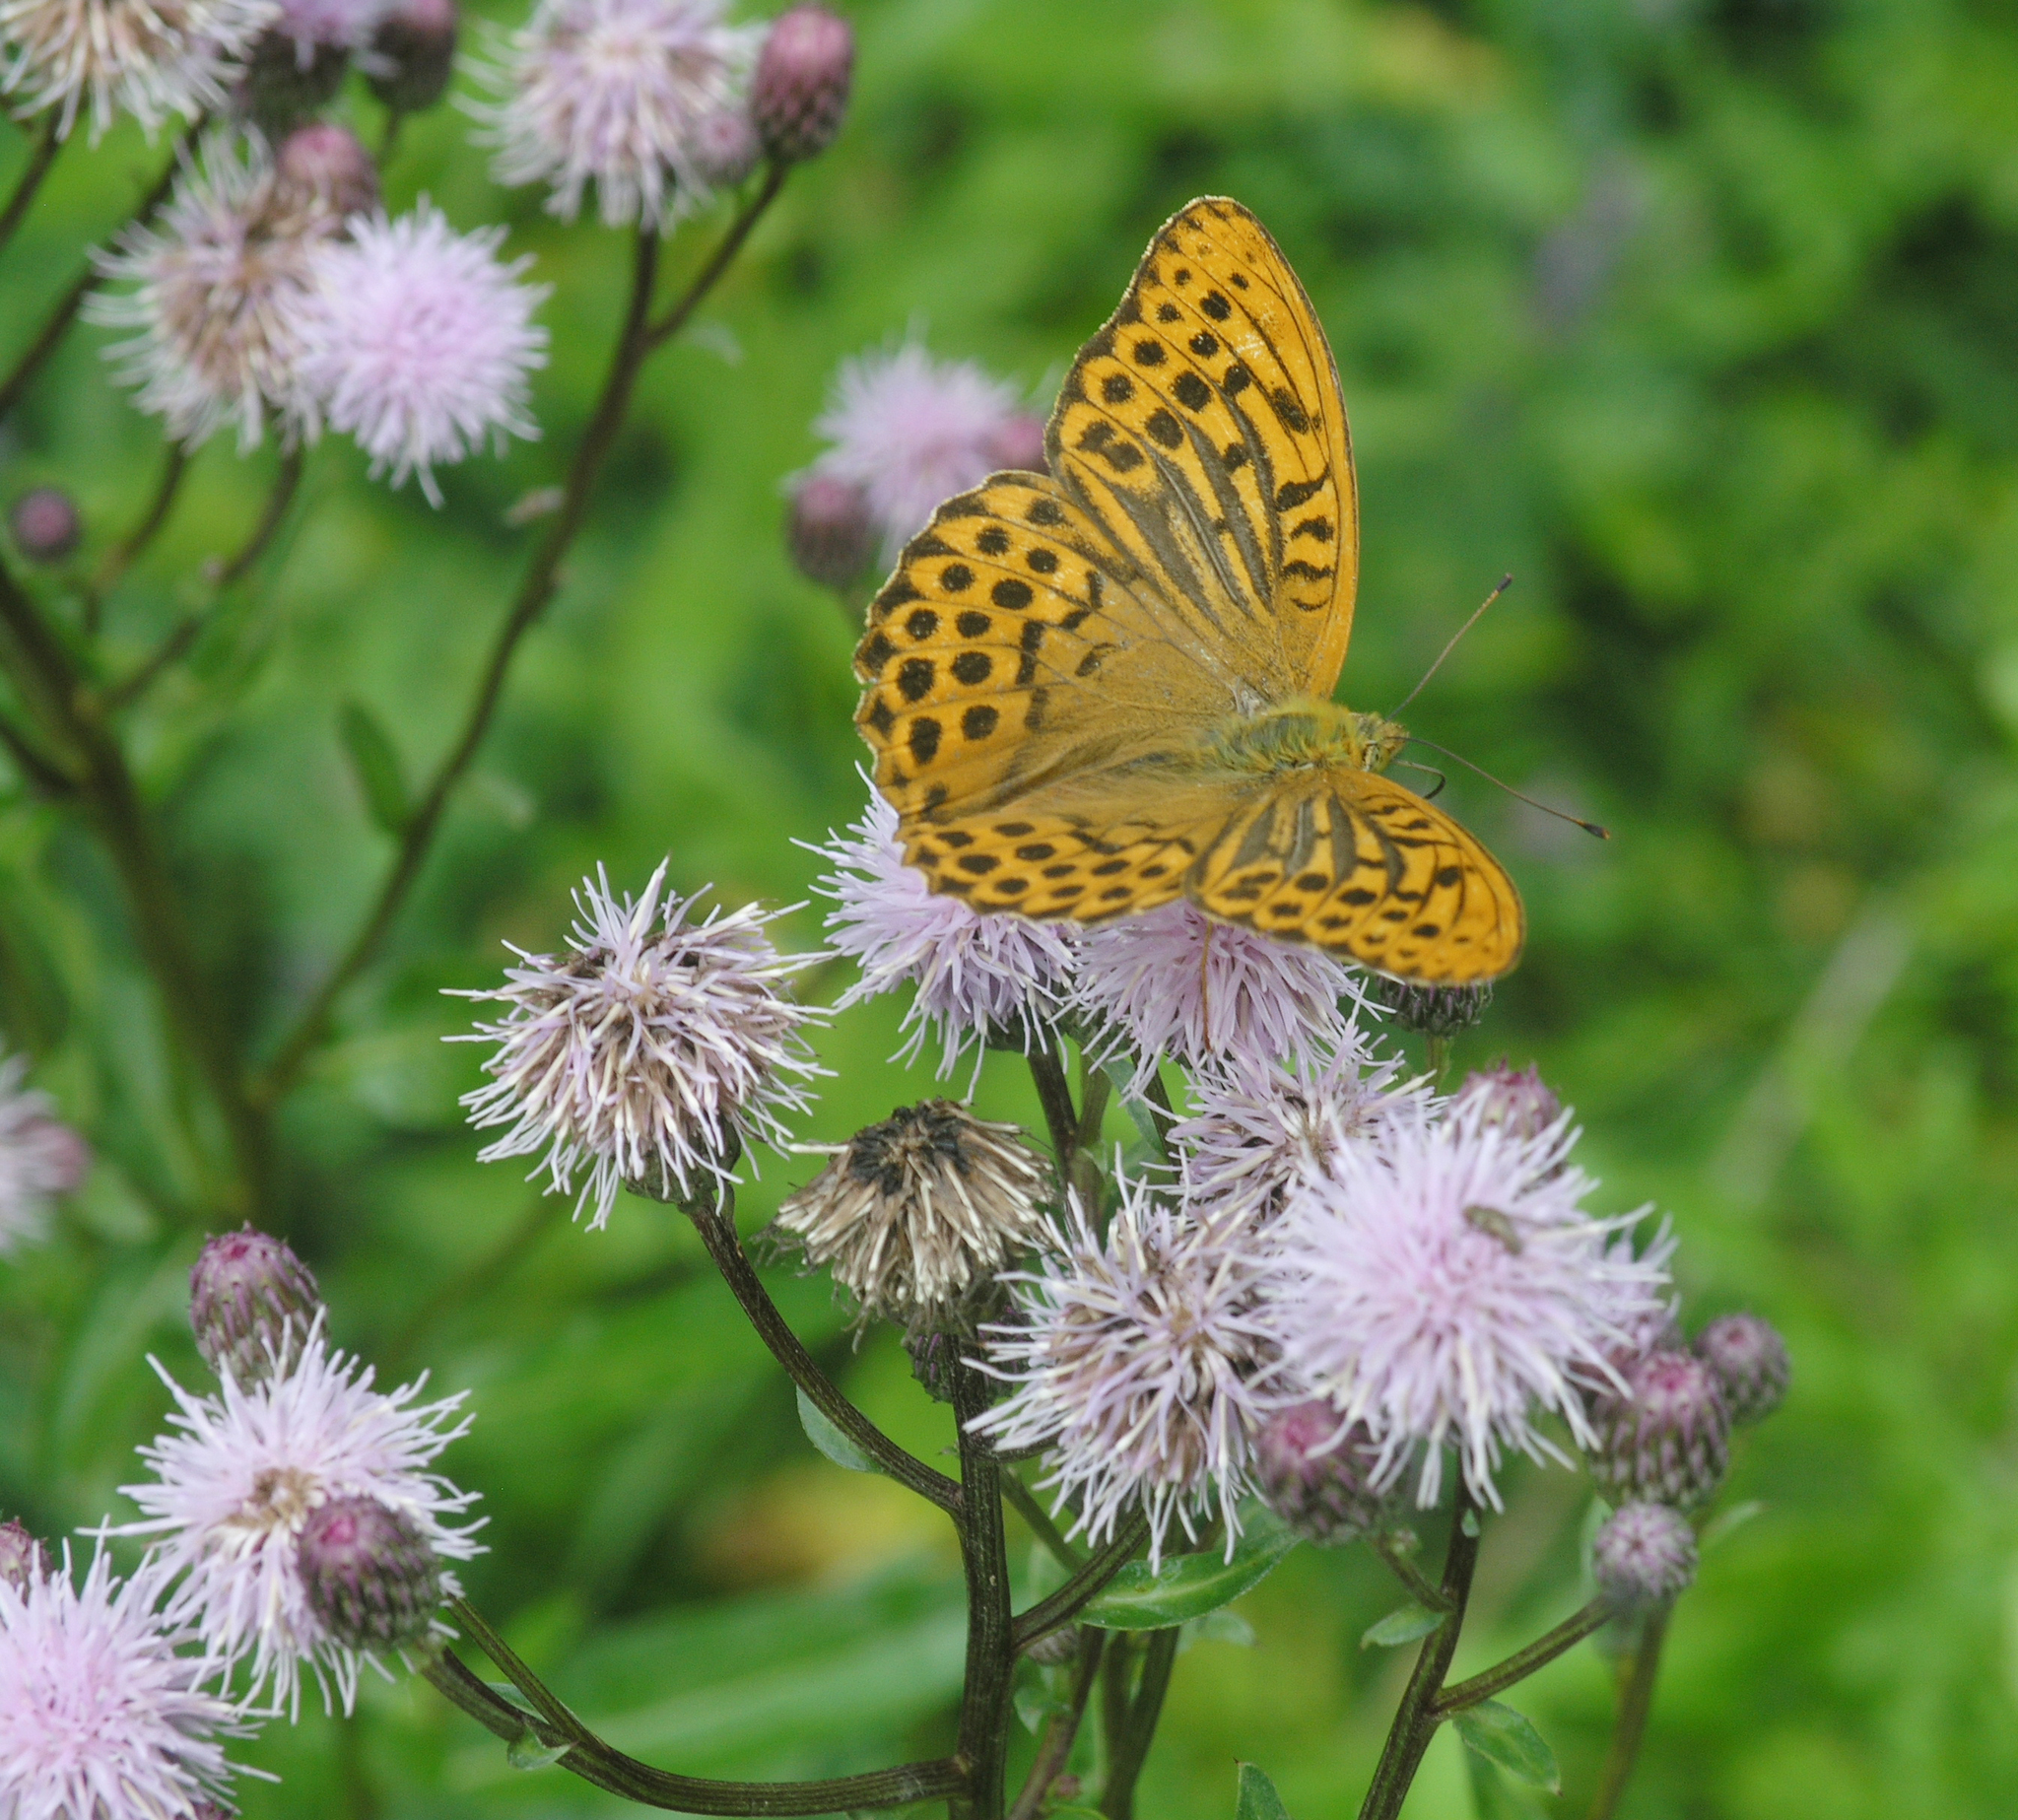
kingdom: Animalia
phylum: Arthropoda
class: Insecta
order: Lepidoptera
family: Nymphalidae
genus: Argynnis
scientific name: Argynnis paphia
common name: Silver-washed fritillary
